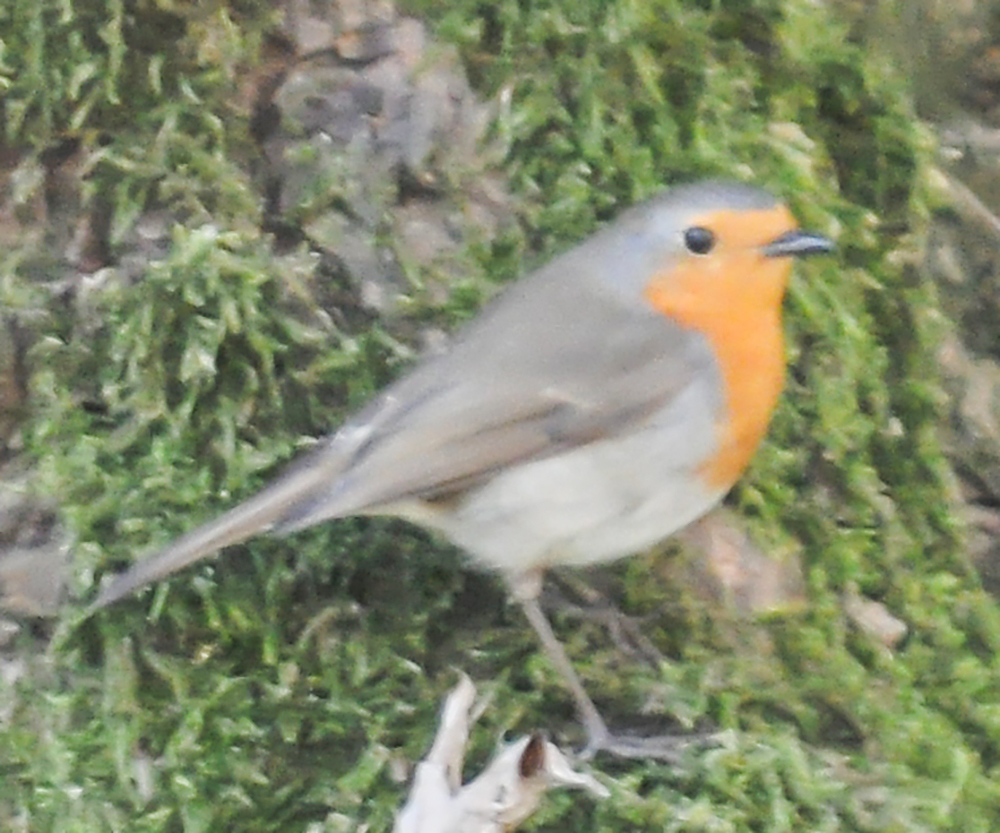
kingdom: Animalia
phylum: Chordata
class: Aves
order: Passeriformes
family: Muscicapidae
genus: Erithacus
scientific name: Erithacus rubecula
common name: European robin
